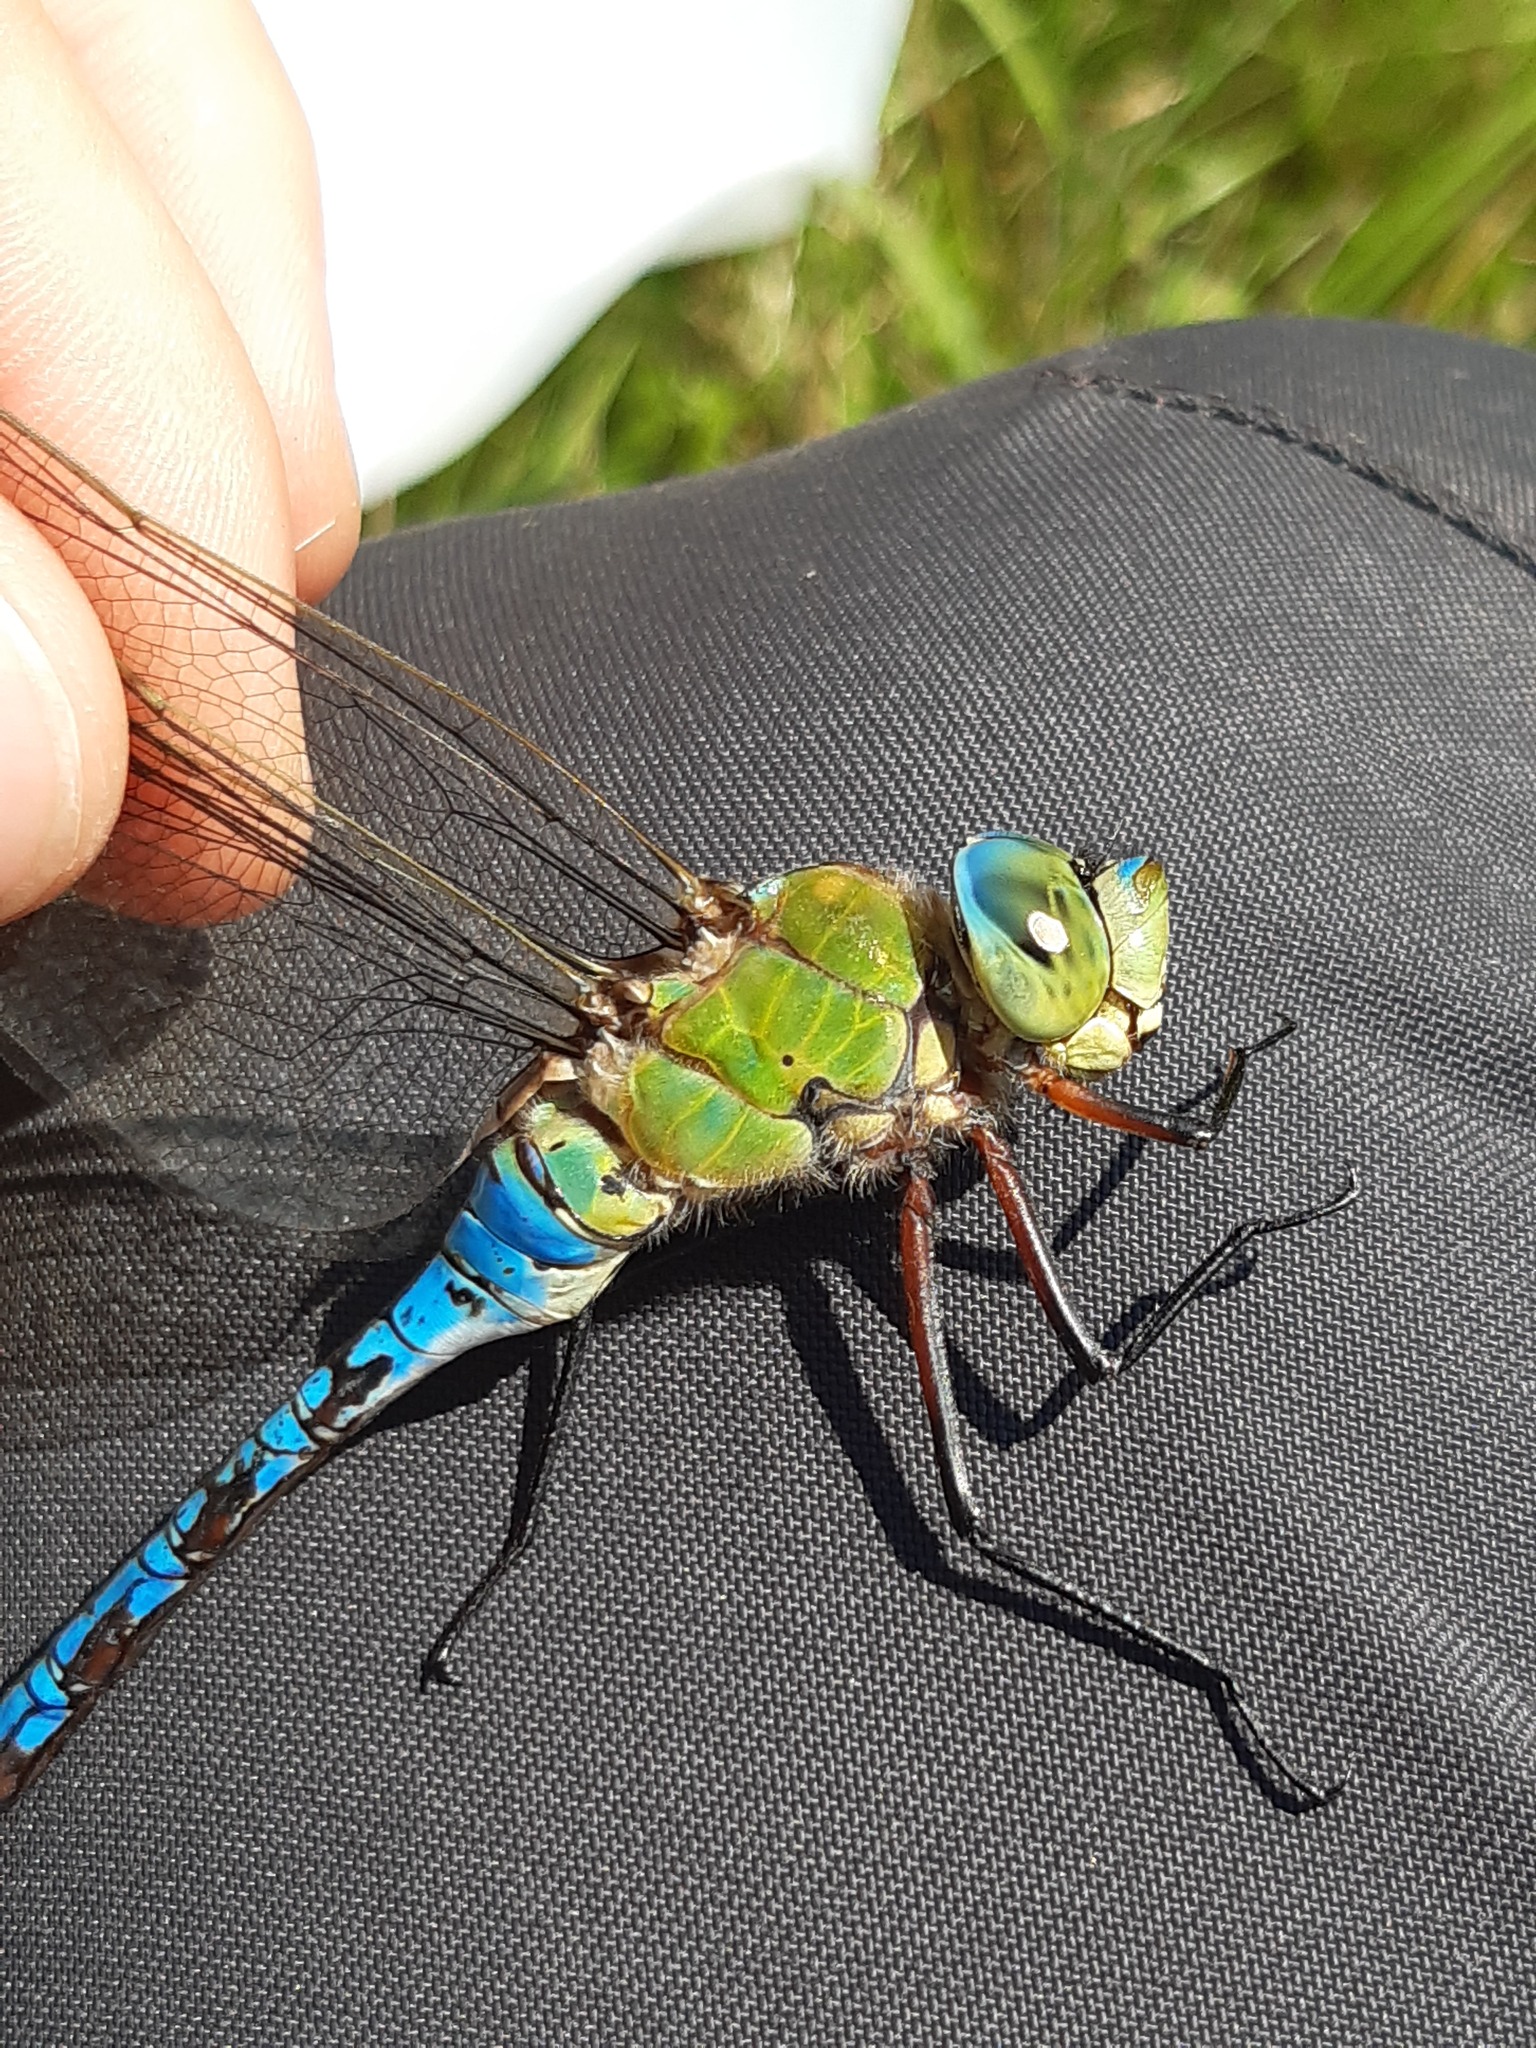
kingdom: Animalia
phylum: Arthropoda
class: Insecta
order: Odonata
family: Aeshnidae
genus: Anax
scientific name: Anax imperator
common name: Emperor dragonfly
